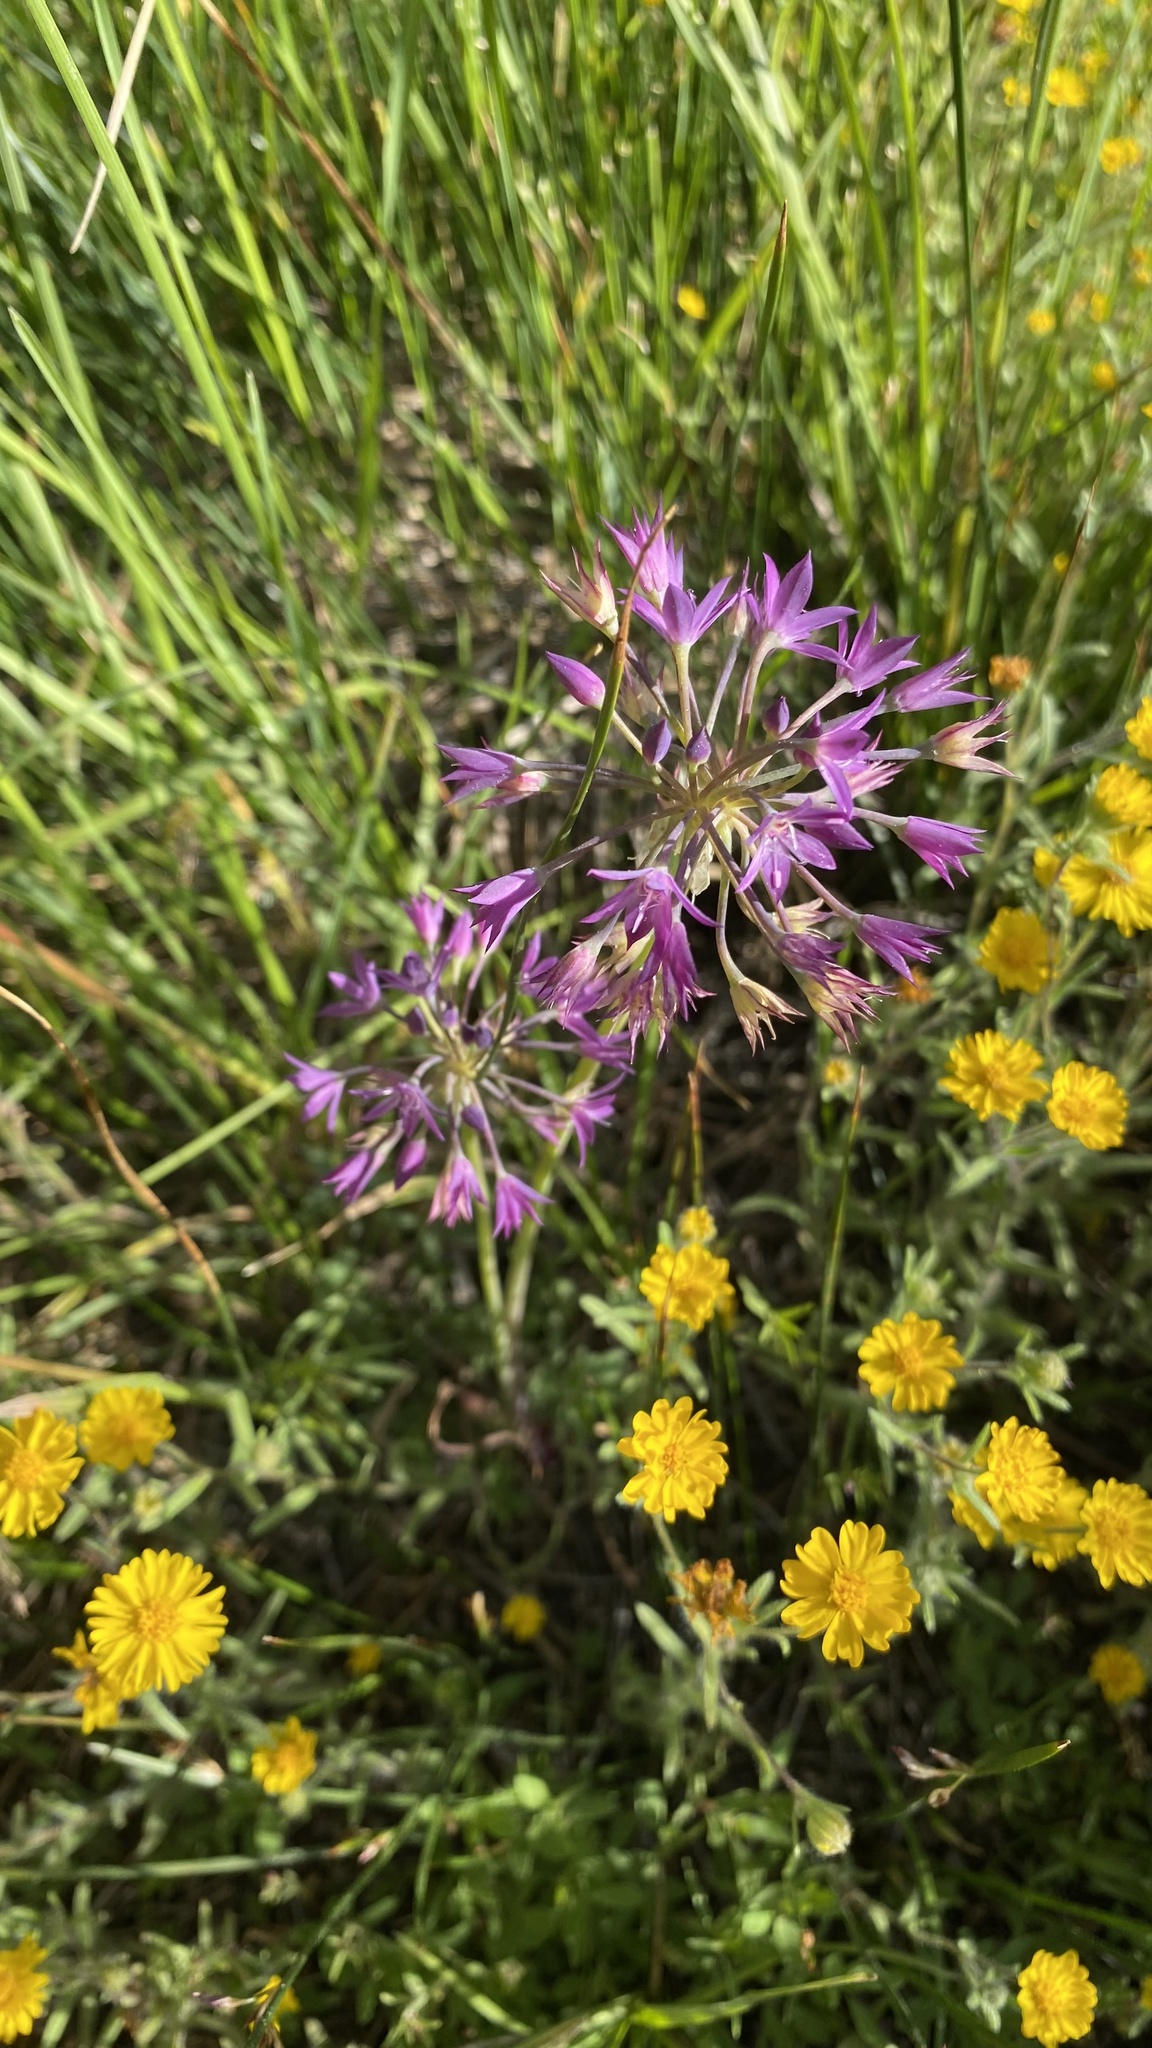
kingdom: Plantae
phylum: Tracheophyta
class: Liliopsida
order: Asparagales
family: Amaryllidaceae
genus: Allium
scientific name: Allium campanulatum
